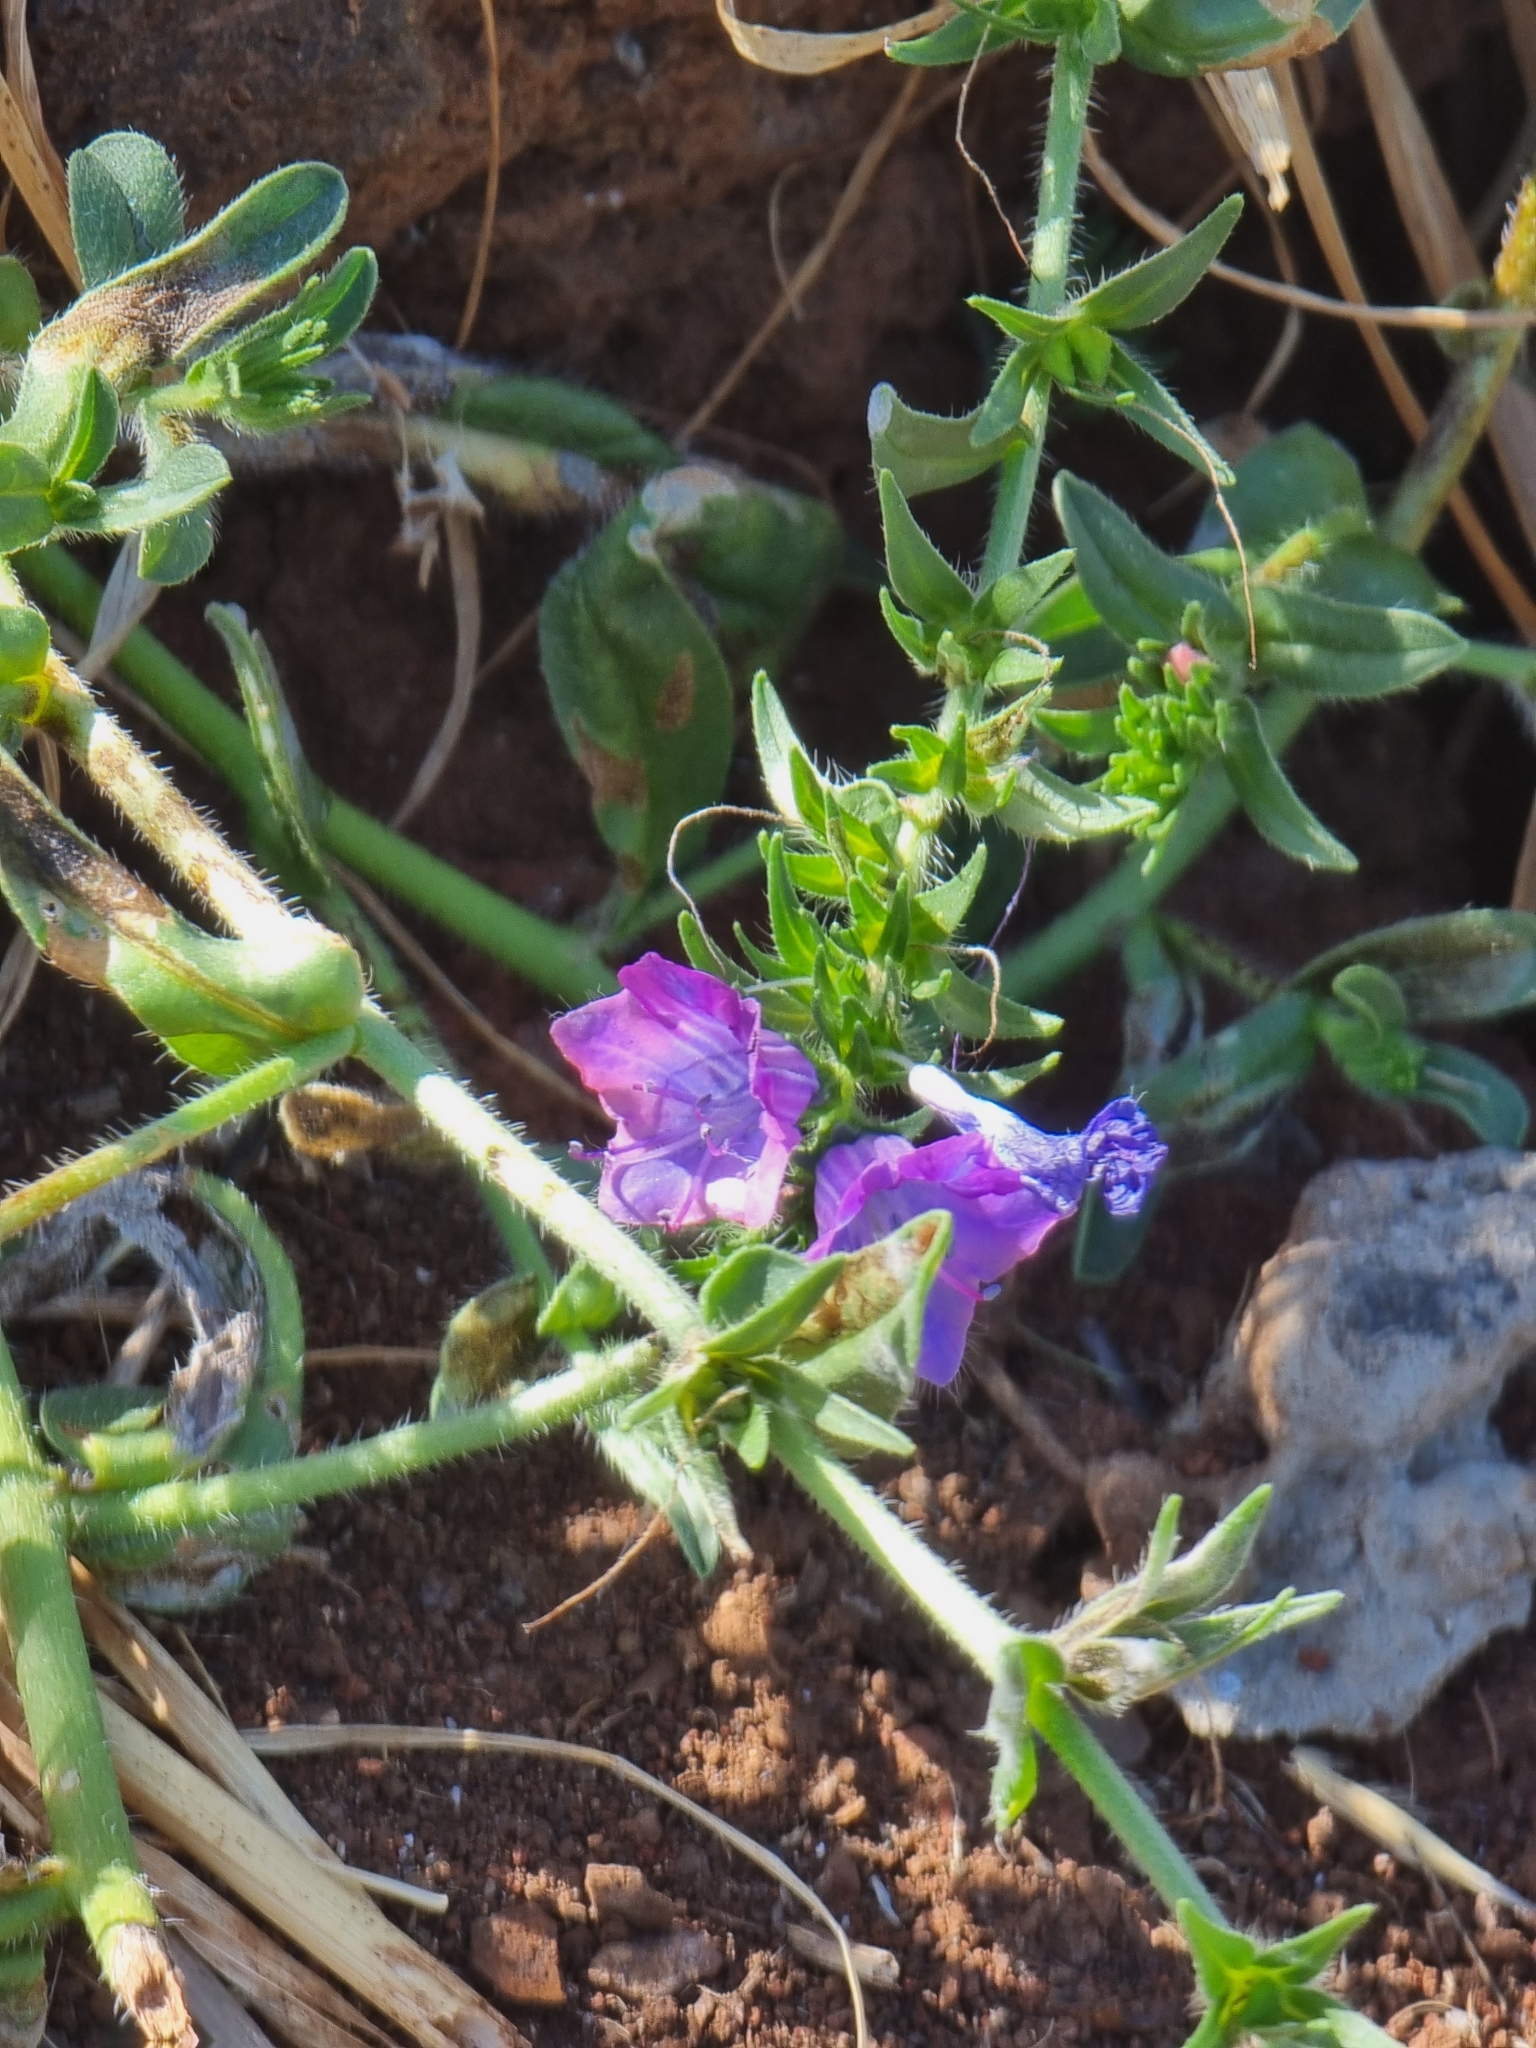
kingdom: Plantae
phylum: Tracheophyta
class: Magnoliopsida
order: Boraginales
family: Boraginaceae
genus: Echium
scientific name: Echium plantagineum
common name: Purple viper's-bugloss
